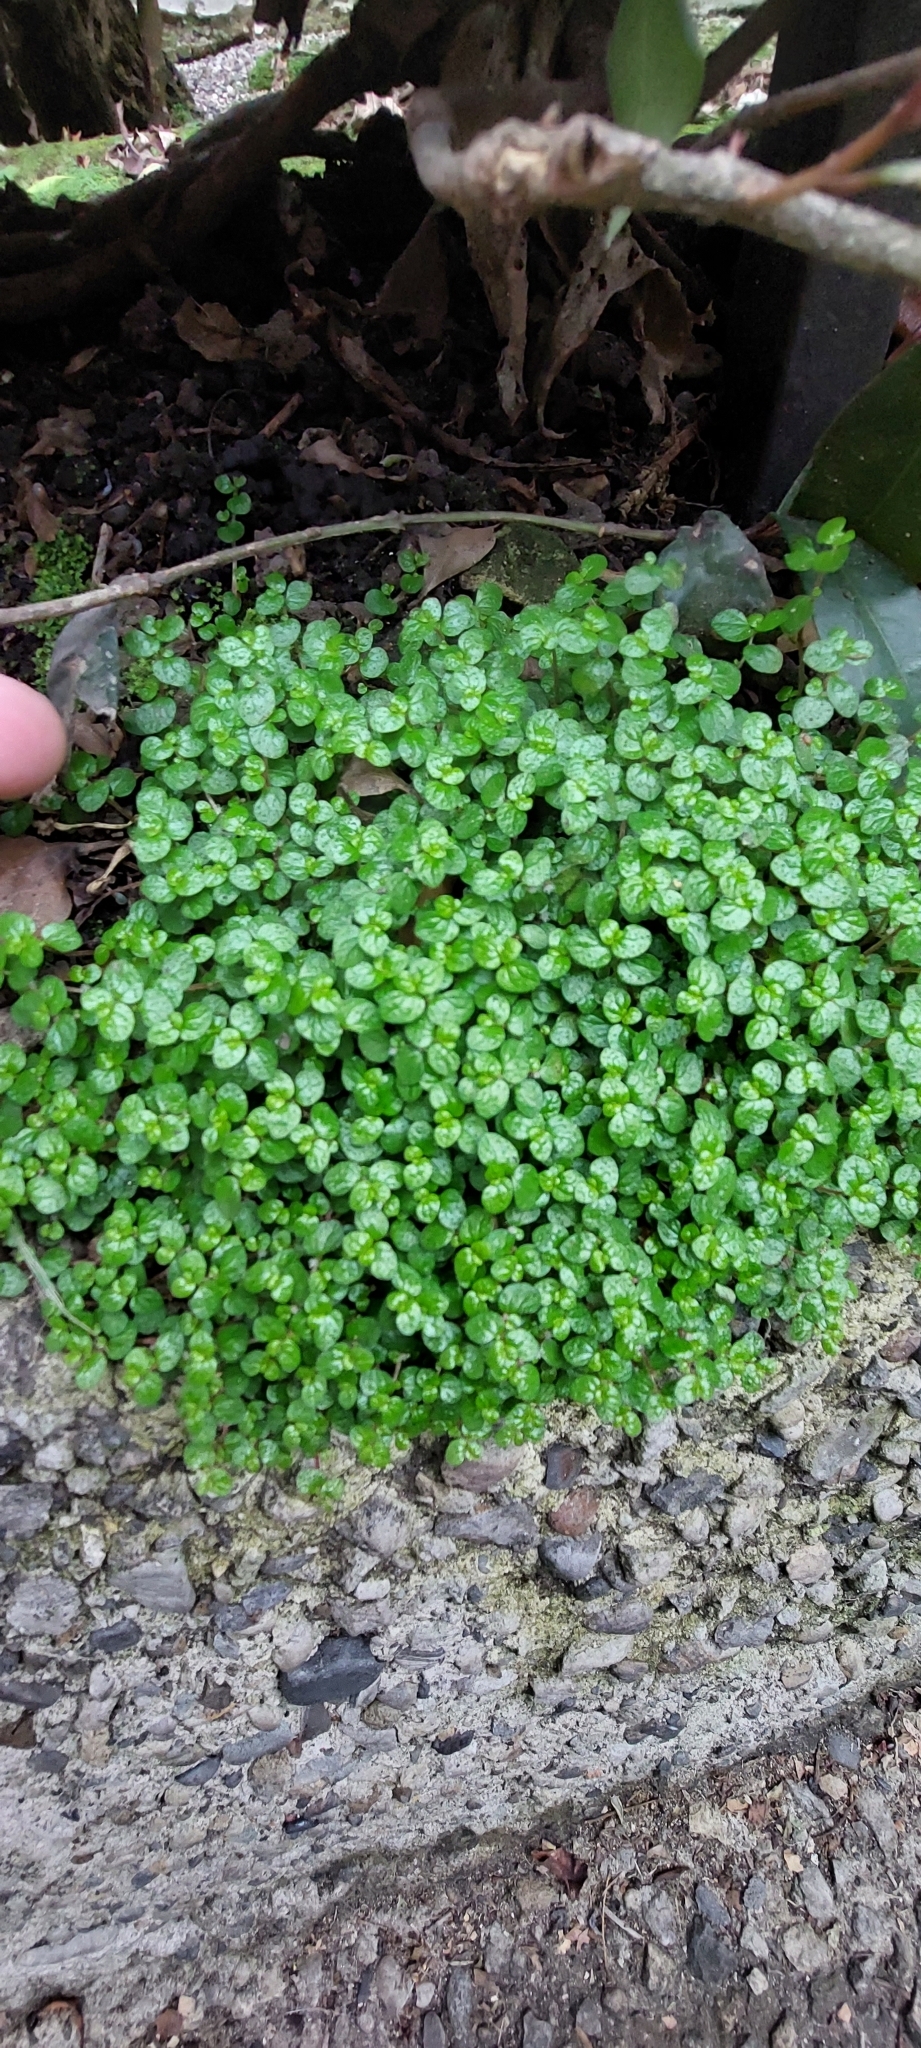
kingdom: Plantae
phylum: Tracheophyta
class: Magnoliopsida
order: Rosales
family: Urticaceae
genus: Soleirolia
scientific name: Soleirolia soleirolii
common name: Mind-your-own-business
